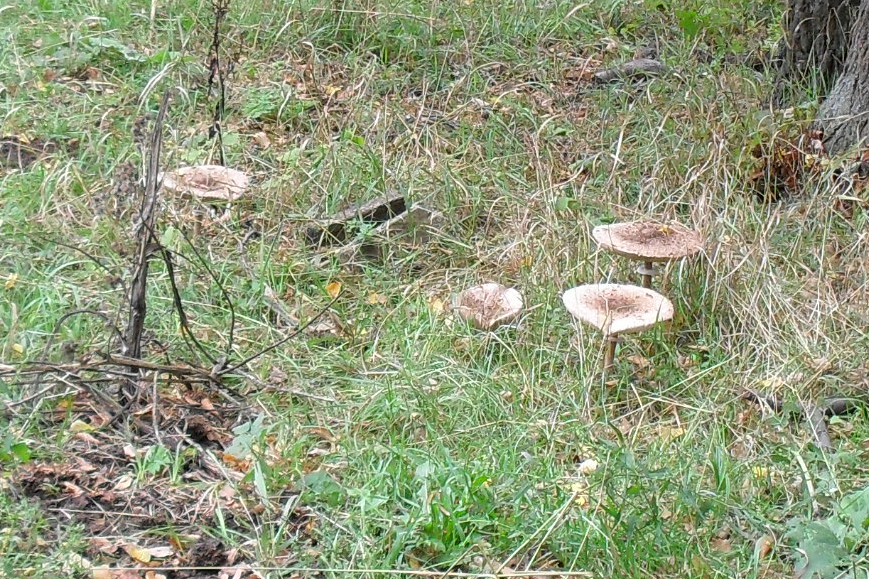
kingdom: Fungi
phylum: Basidiomycota
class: Agaricomycetes
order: Agaricales
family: Agaricaceae
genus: Macrolepiota
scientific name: Macrolepiota procera
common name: Parasol
